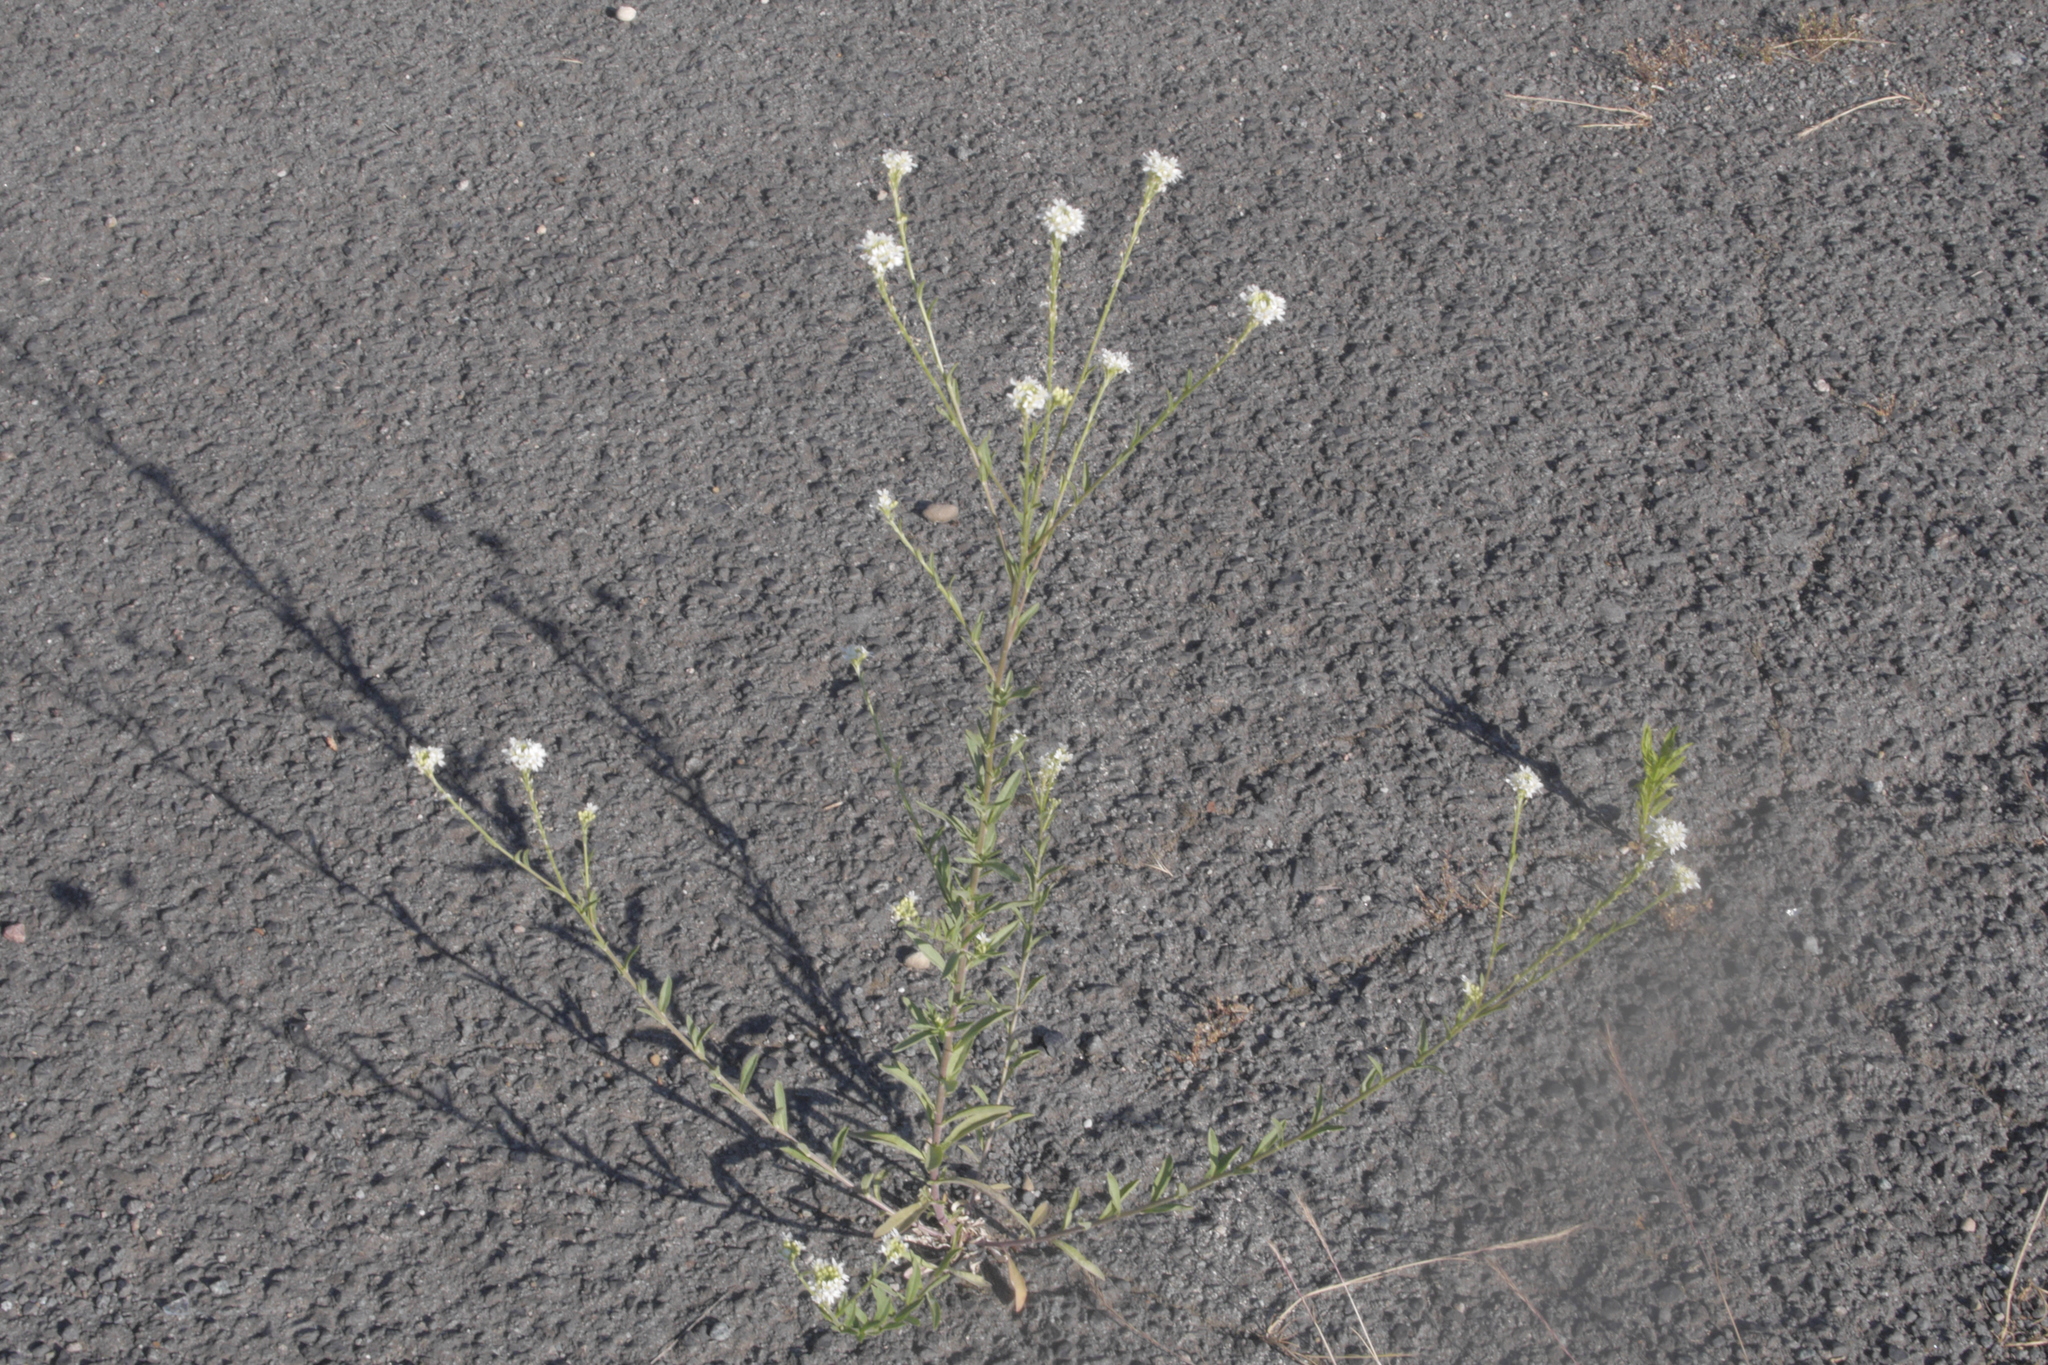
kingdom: Plantae
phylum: Tracheophyta
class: Magnoliopsida
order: Brassicales
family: Brassicaceae
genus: Berteroa
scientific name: Berteroa incana
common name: Hoary alison
